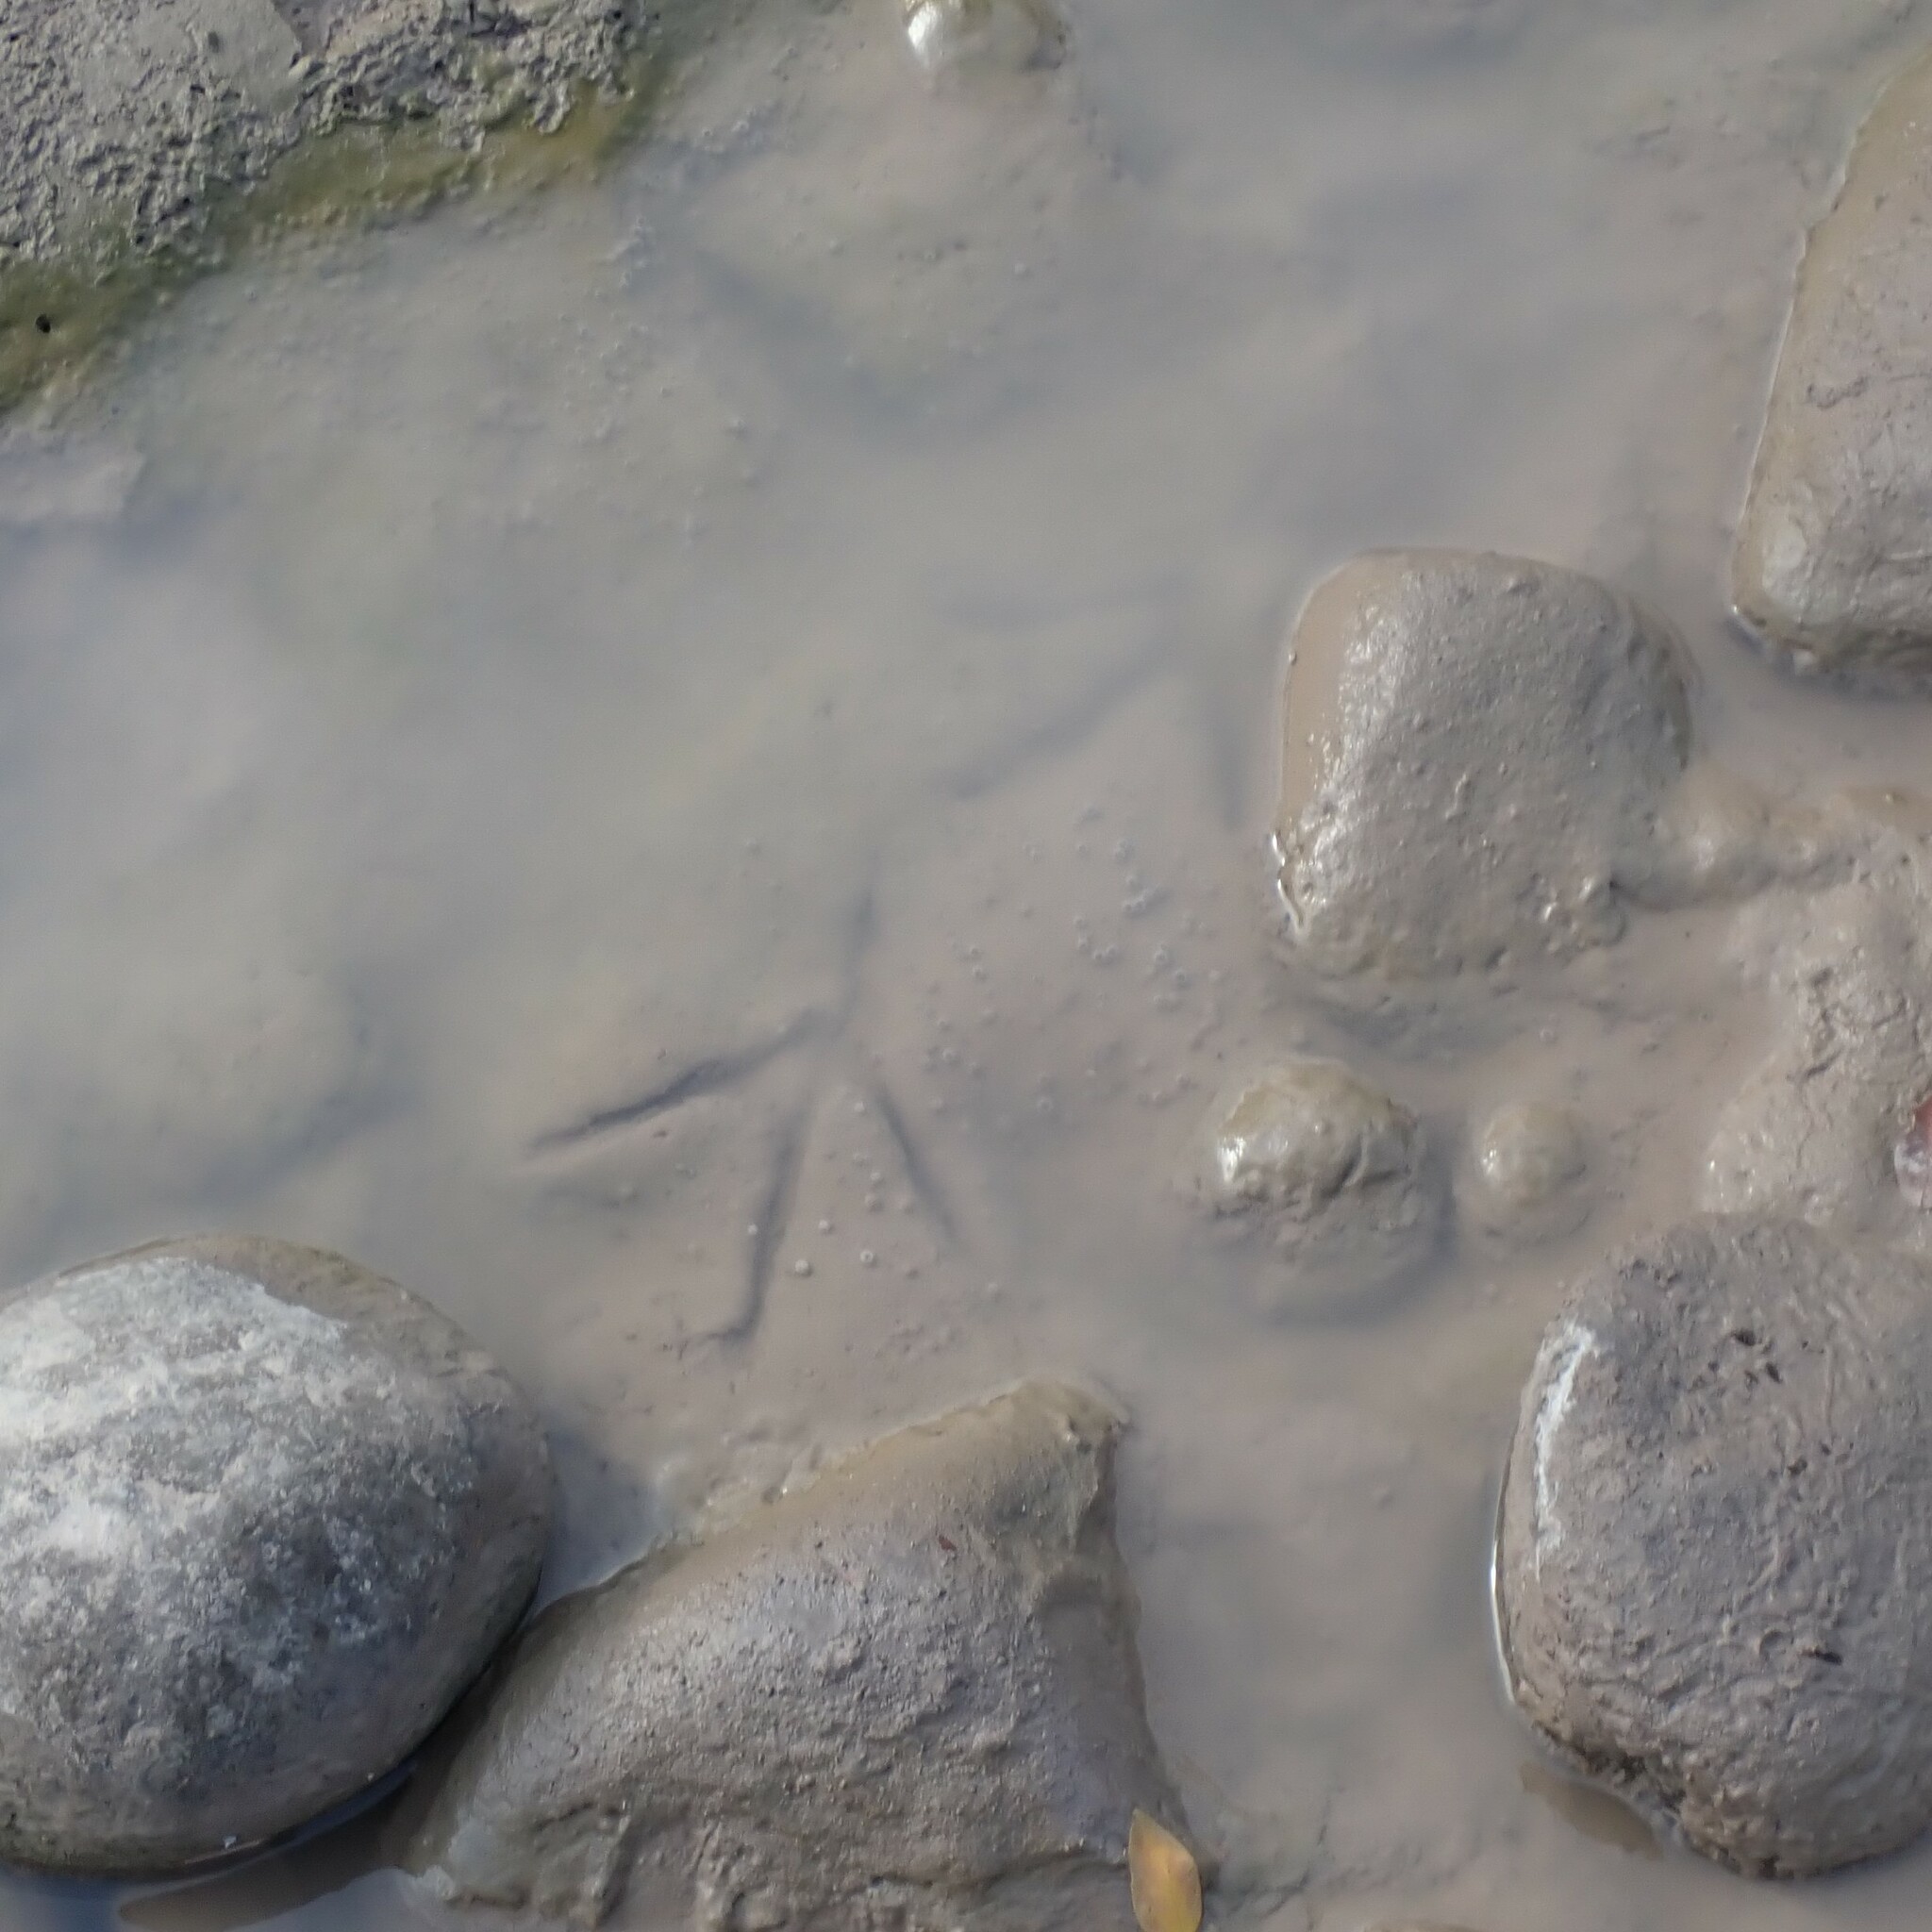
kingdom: Animalia
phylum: Chordata
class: Aves
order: Pelecaniformes
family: Ardeidae
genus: Ardea
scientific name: Ardea herodias
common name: Great blue heron
